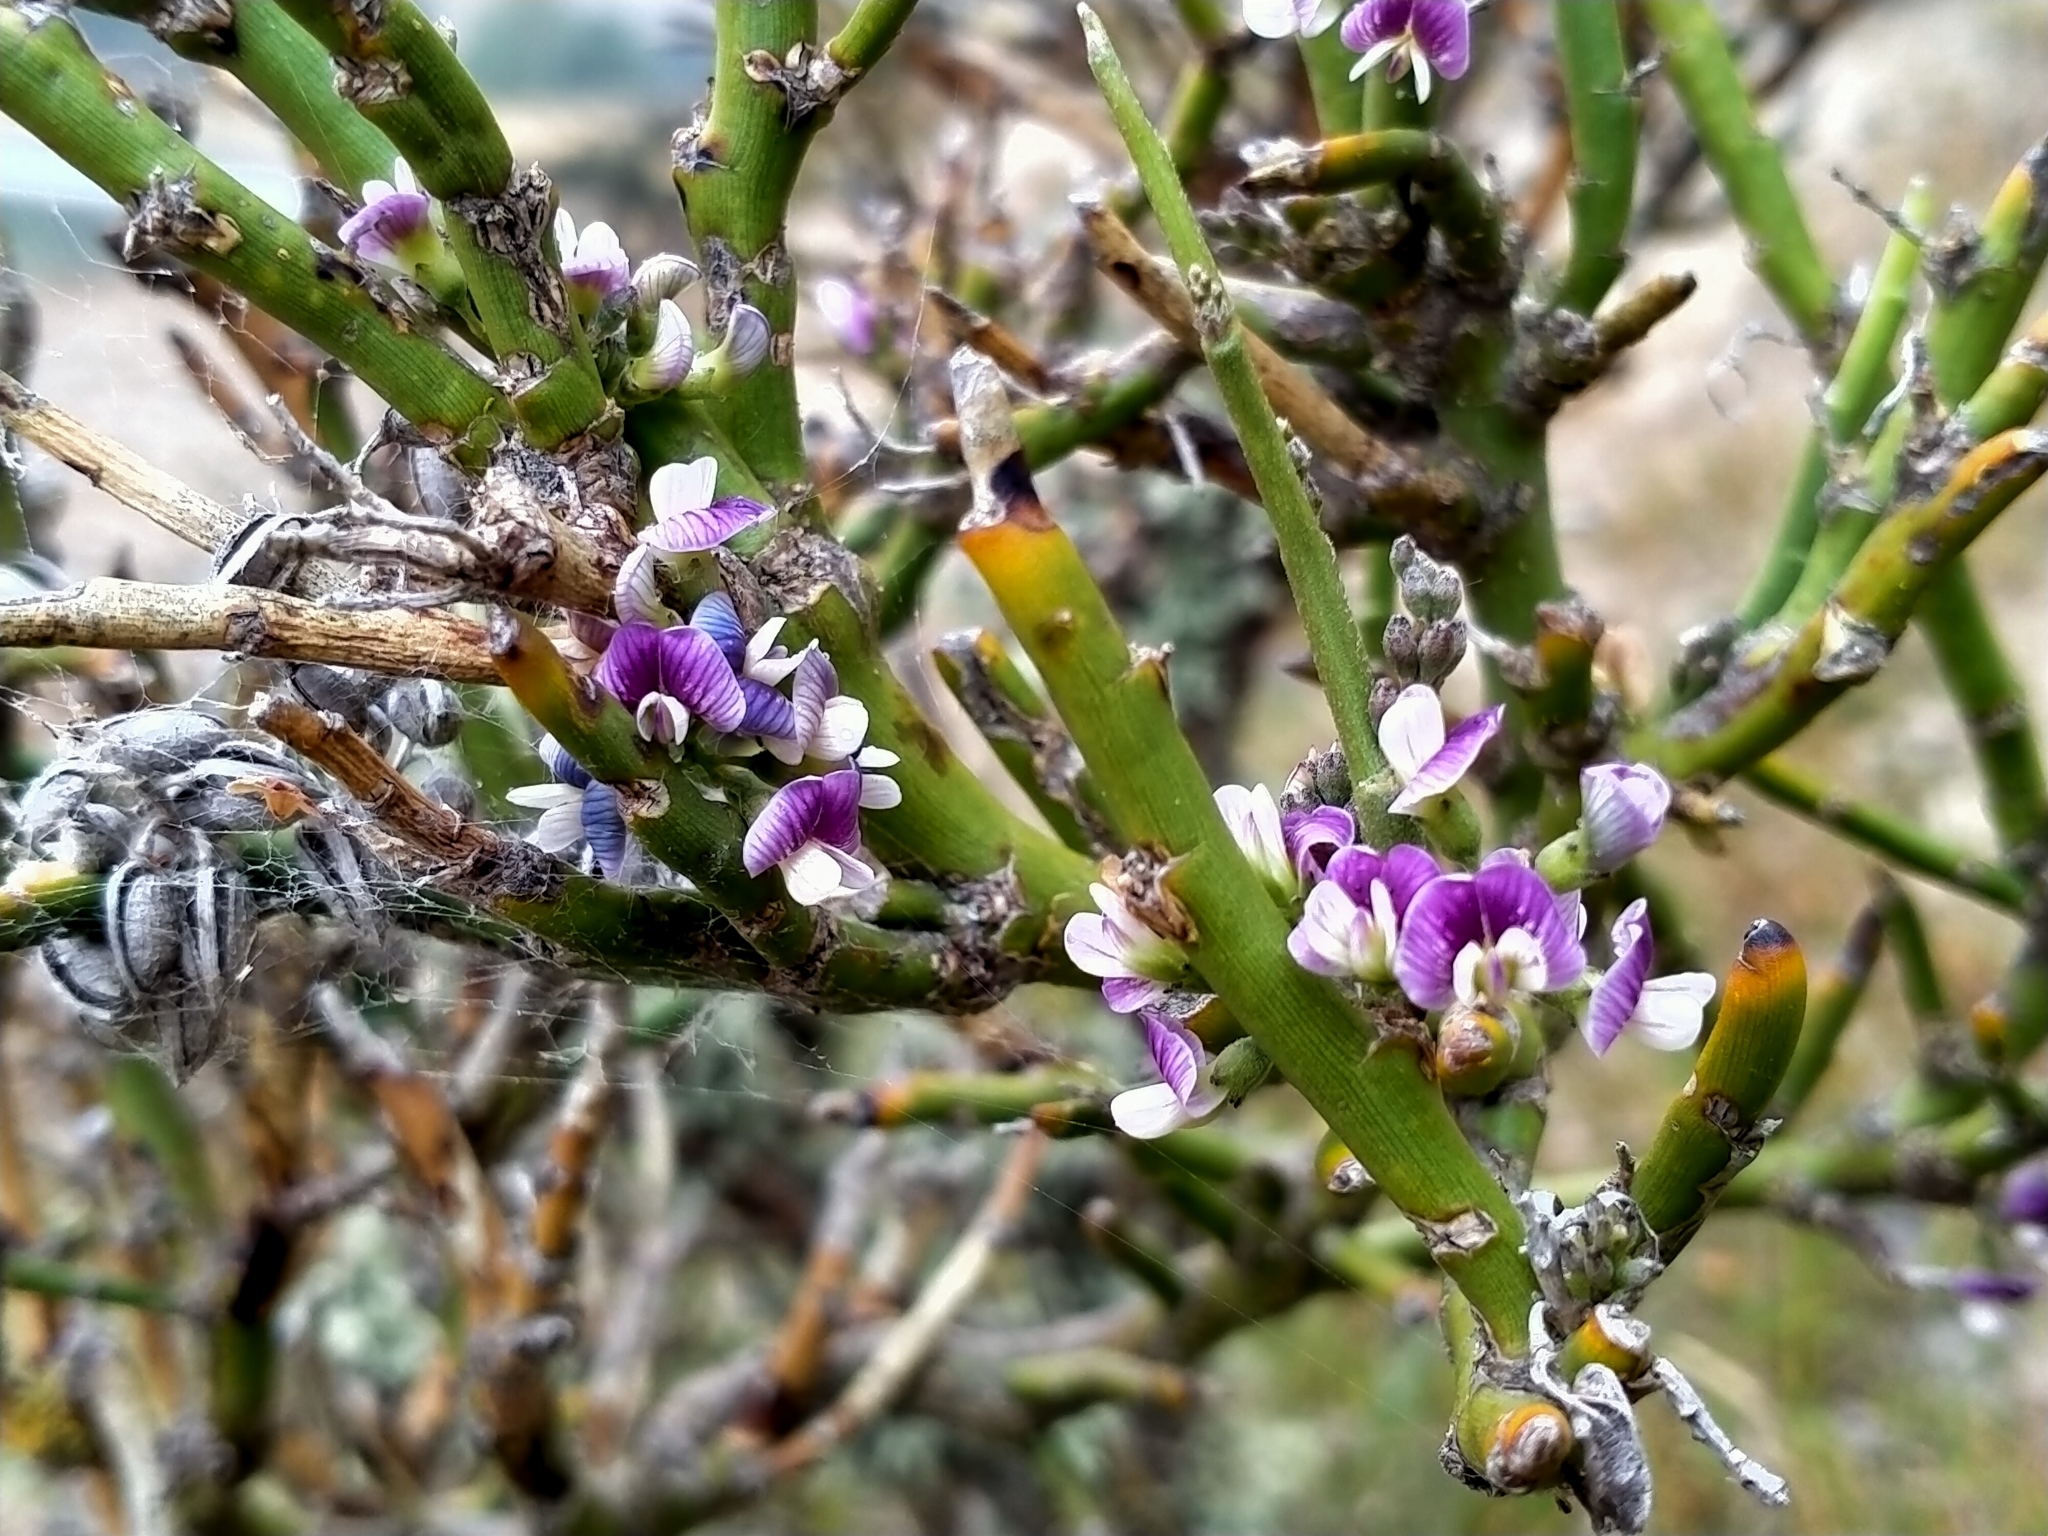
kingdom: Plantae
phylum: Tracheophyta
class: Magnoliopsida
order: Fabales
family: Fabaceae
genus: Carmichaelia
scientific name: Carmichaelia petriei
